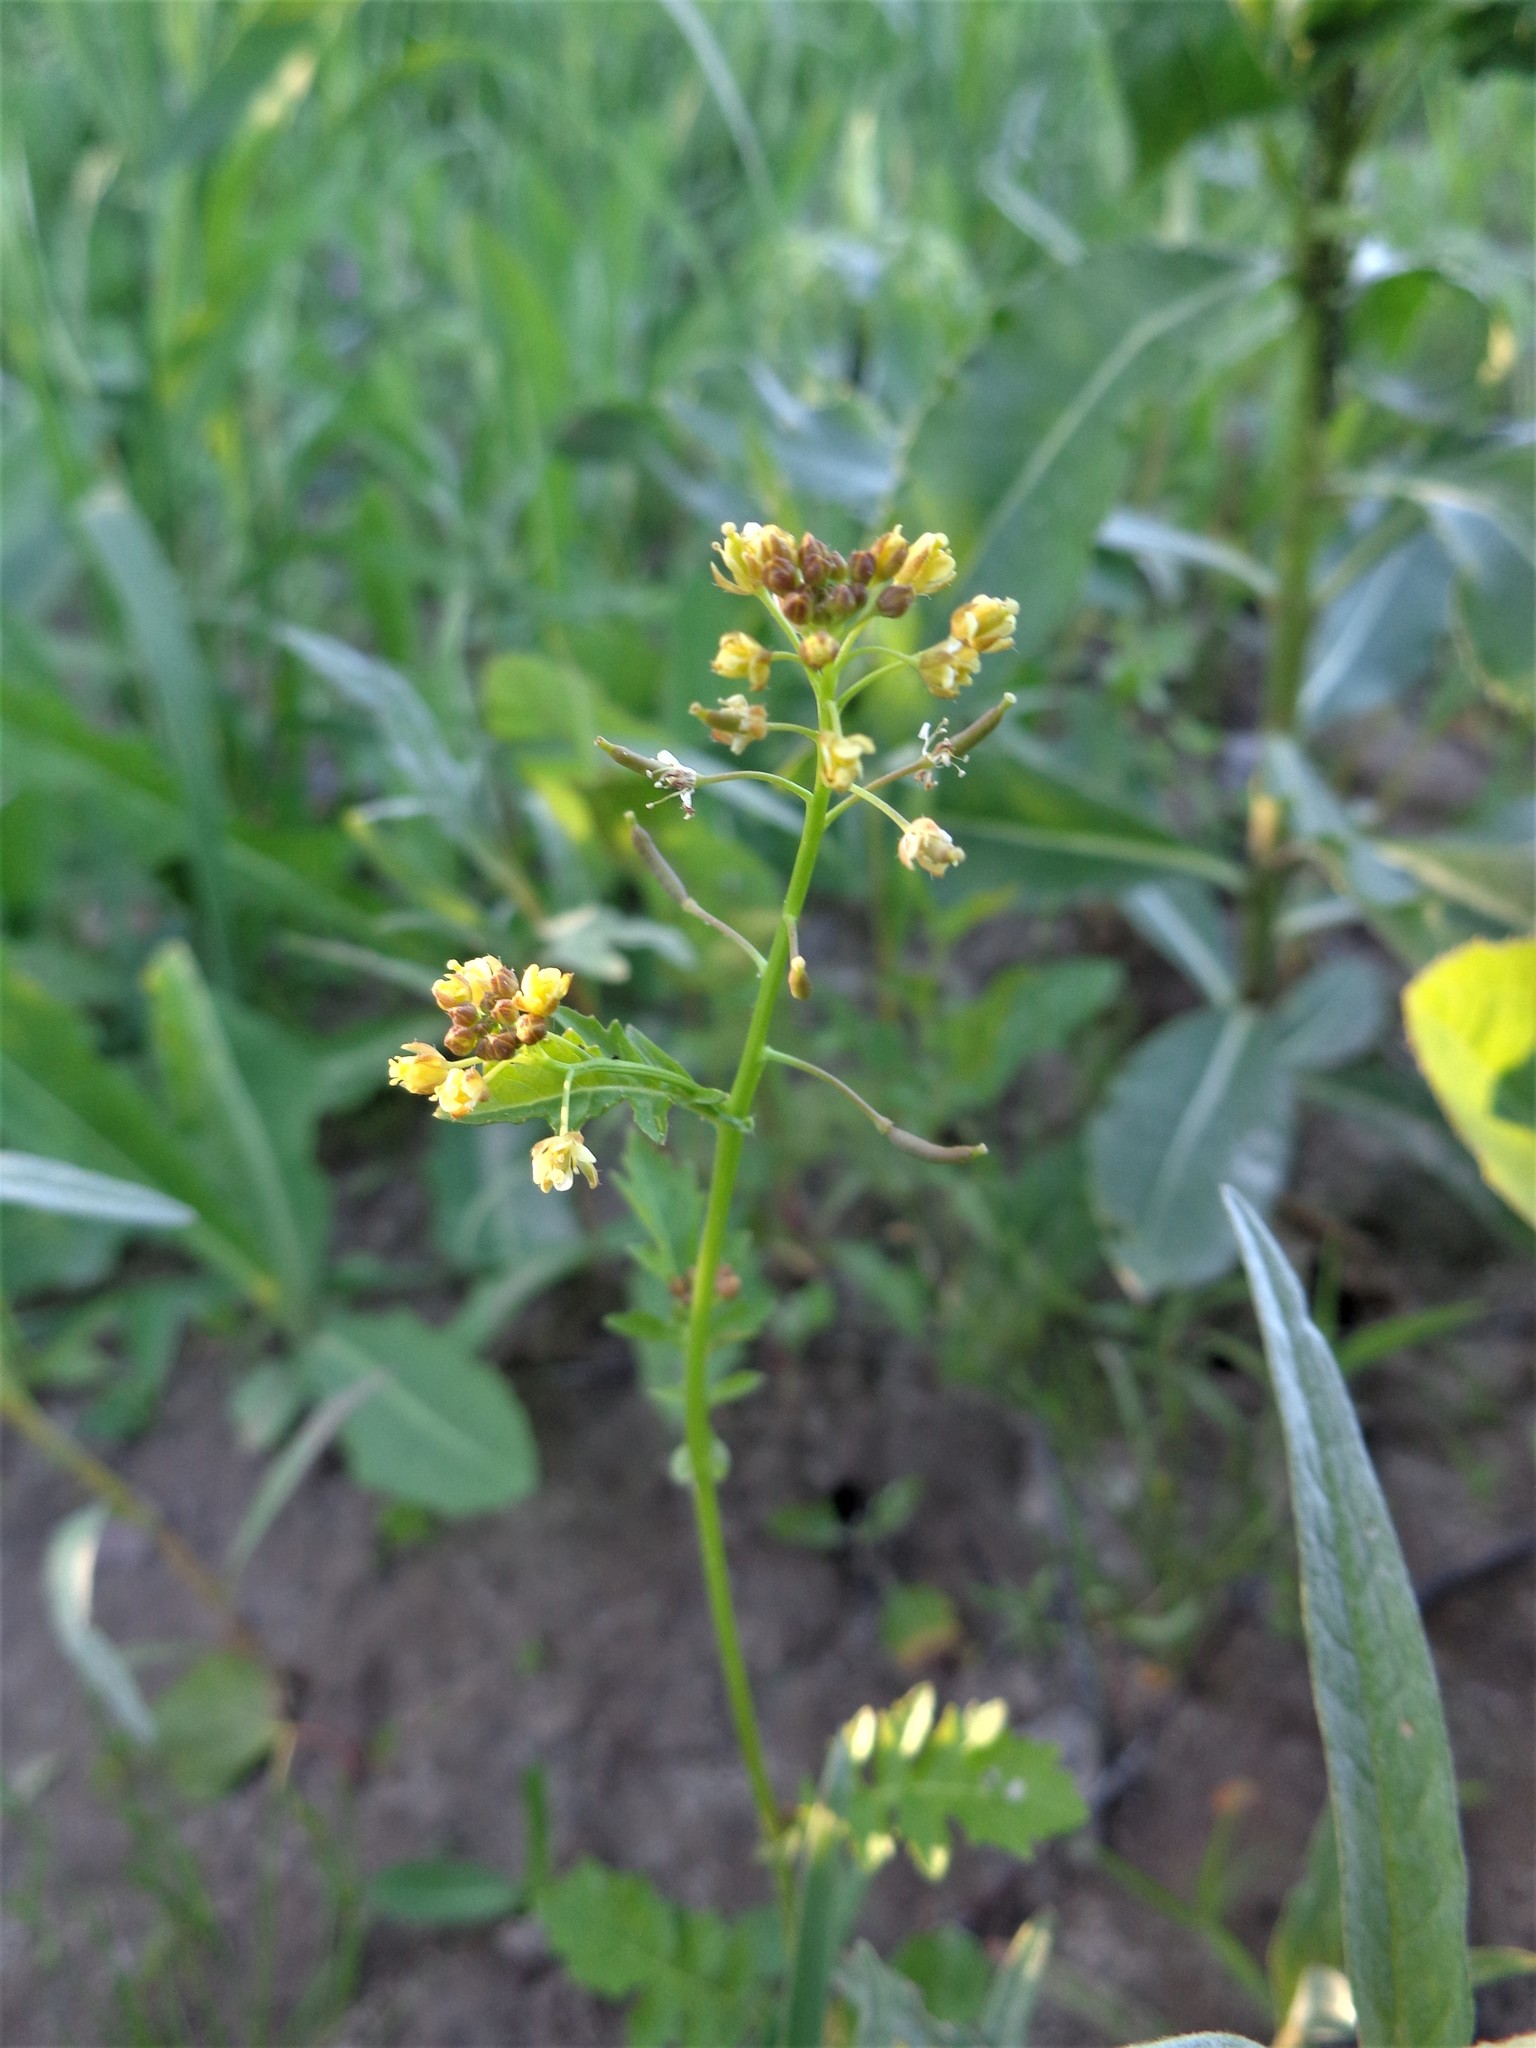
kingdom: Plantae
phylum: Tracheophyta
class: Magnoliopsida
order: Brassicales
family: Brassicaceae
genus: Rorippa
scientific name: Rorippa palustris
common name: Marsh yellow-cress
